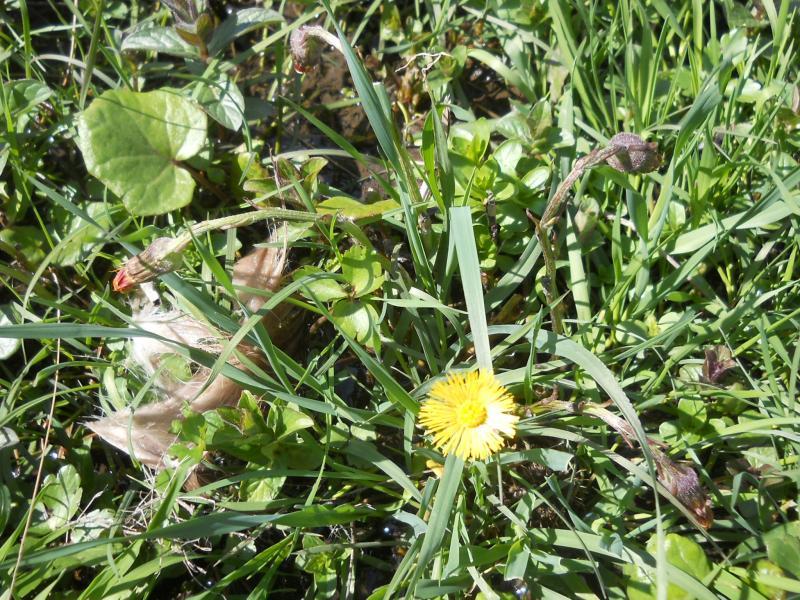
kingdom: Plantae
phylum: Tracheophyta
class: Magnoliopsida
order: Asterales
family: Asteraceae
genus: Tussilago
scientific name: Tussilago farfara
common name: Coltsfoot
